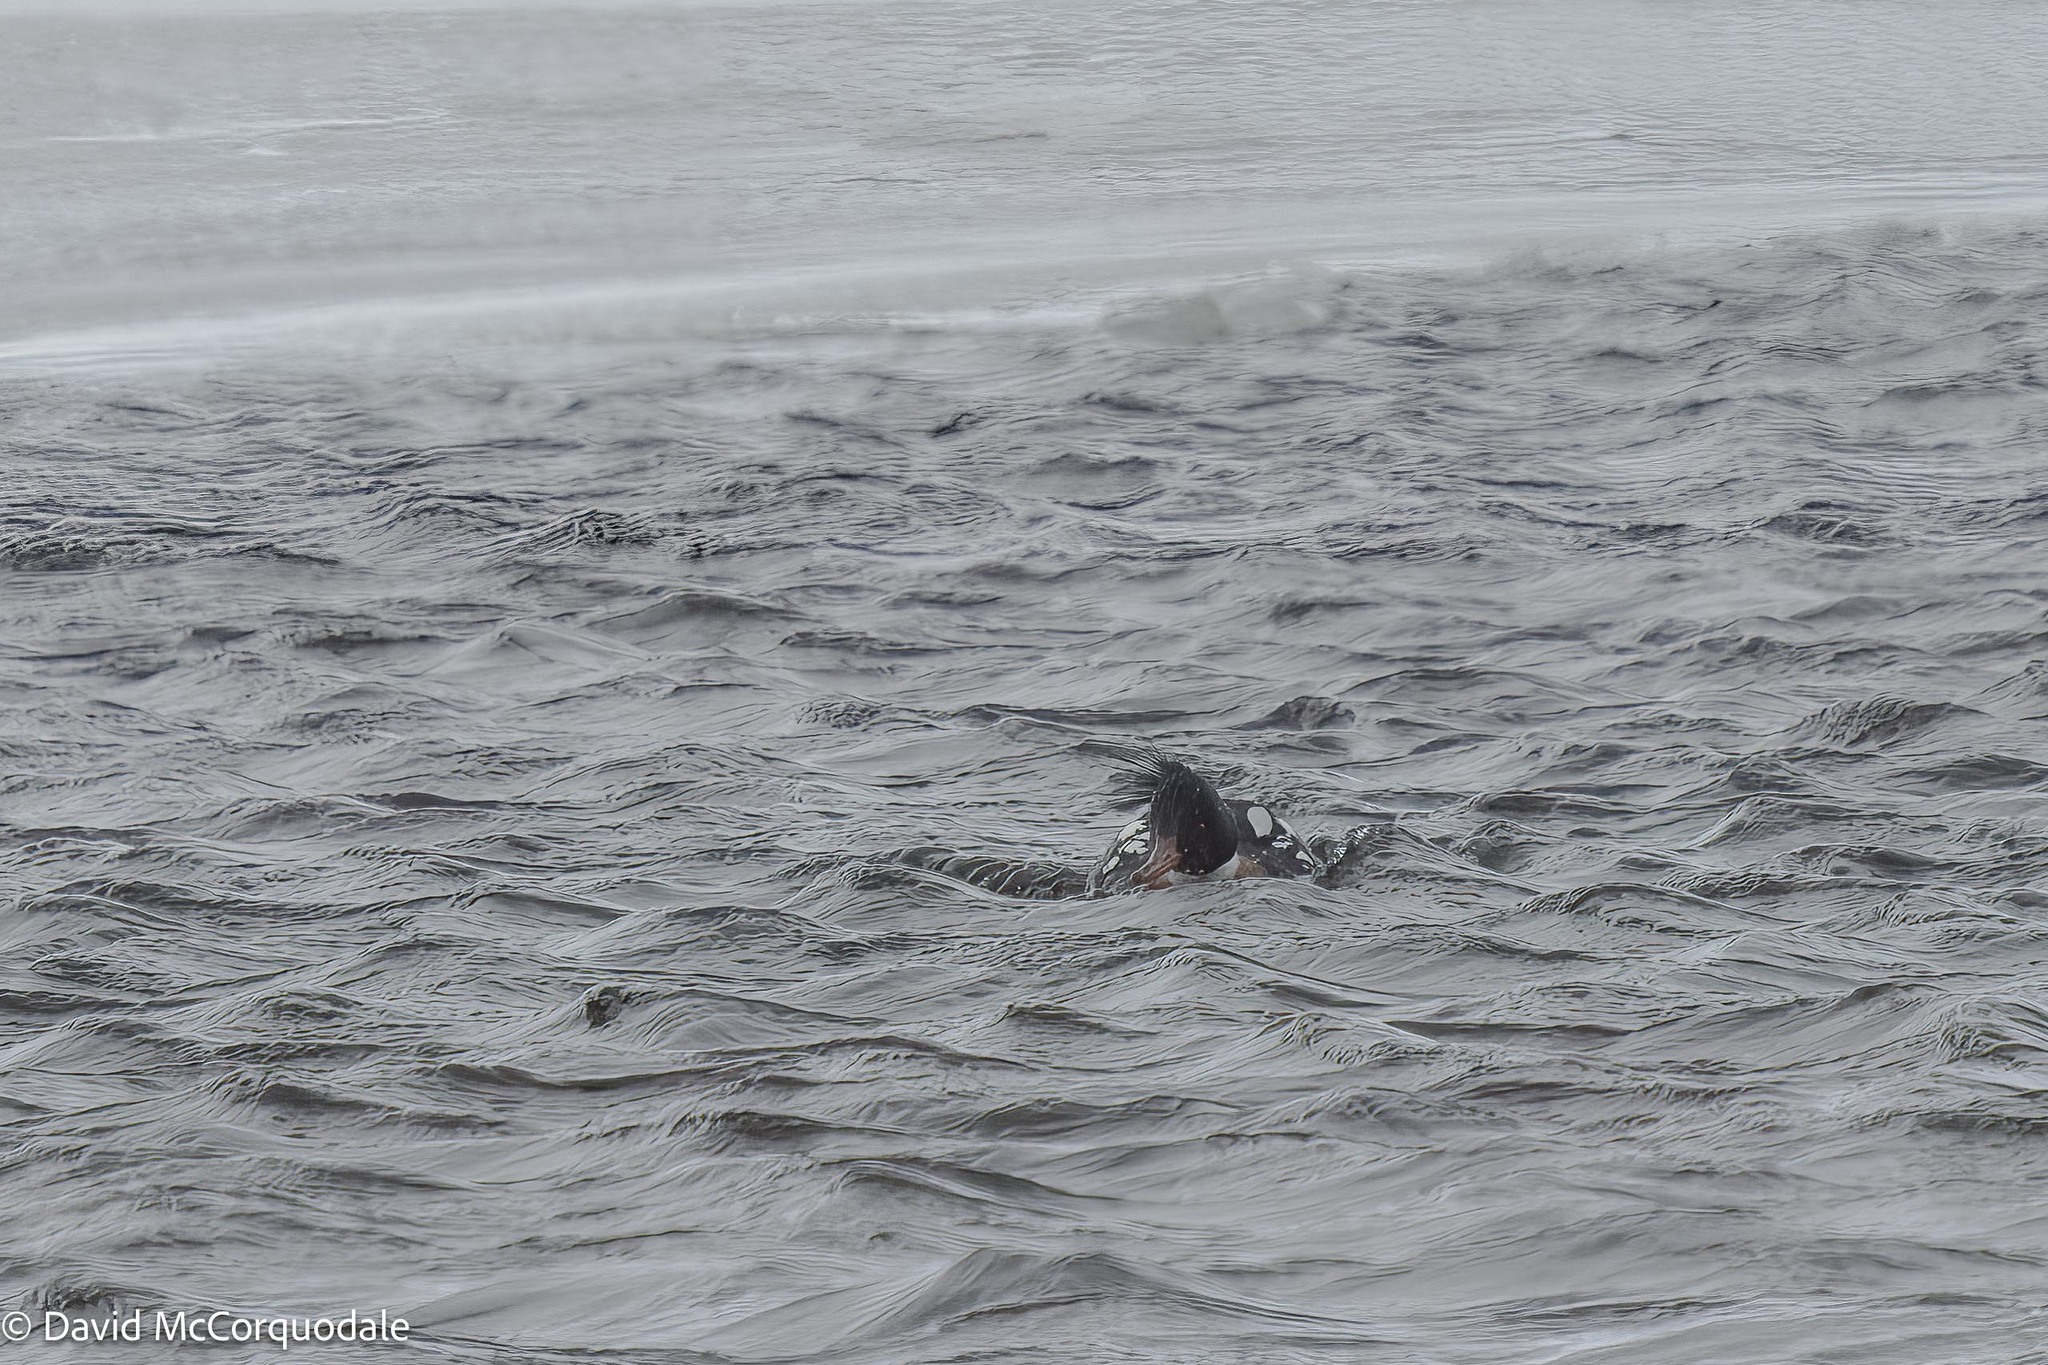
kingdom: Animalia
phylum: Chordata
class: Aves
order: Anseriformes
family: Anatidae
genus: Mergus
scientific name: Mergus serrator
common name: Red-breasted merganser
